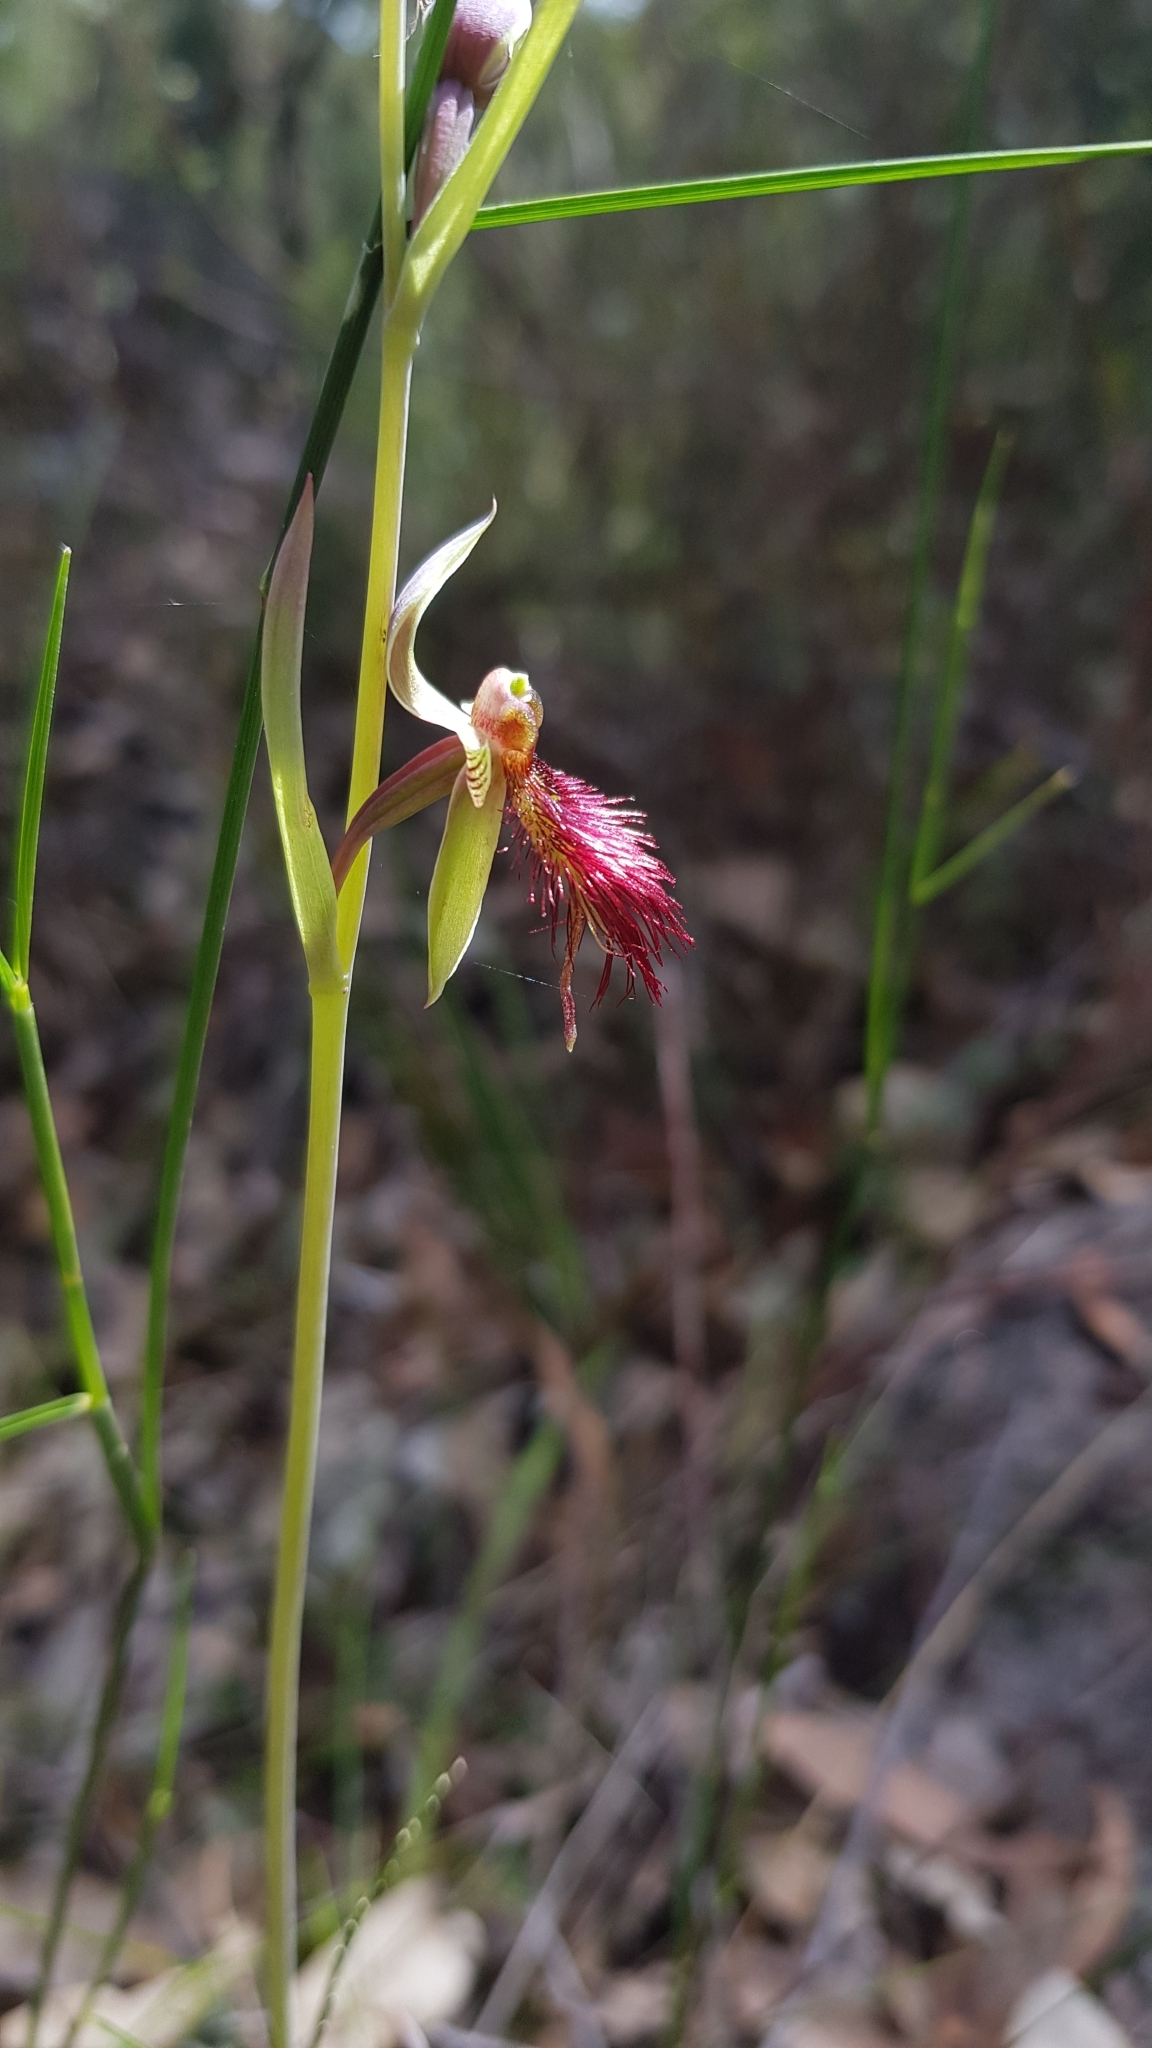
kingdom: Plantae
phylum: Tracheophyta
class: Liliopsida
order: Asparagales
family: Orchidaceae
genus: Calochilus
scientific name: Calochilus paludosus
